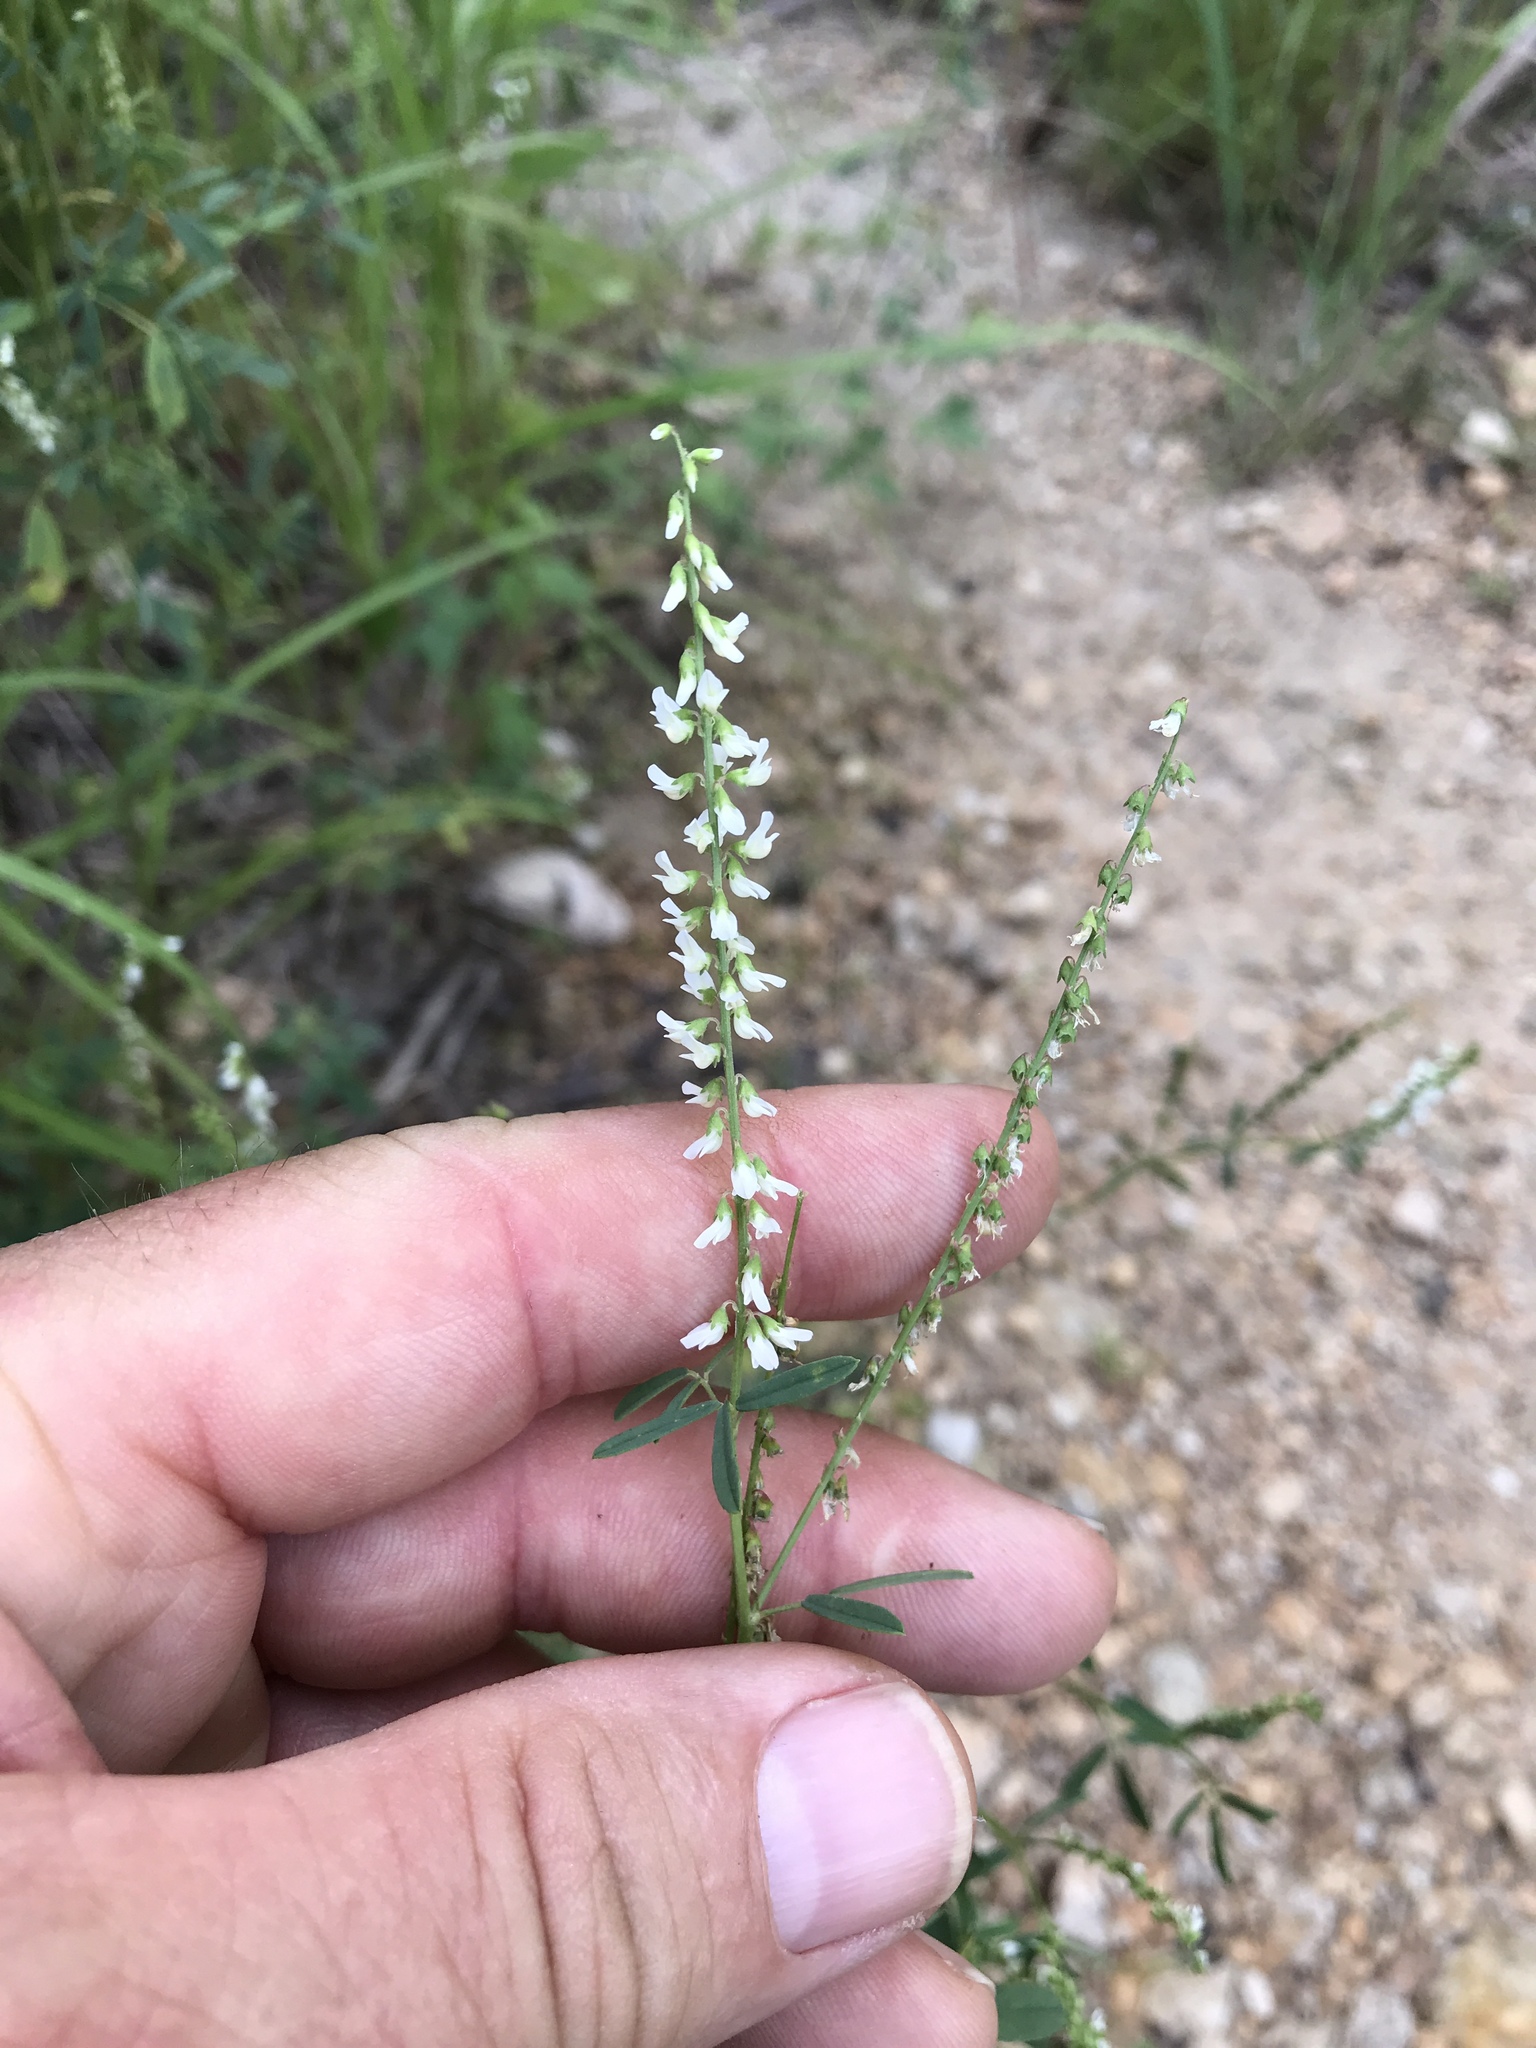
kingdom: Plantae
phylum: Tracheophyta
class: Magnoliopsida
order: Fabales
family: Fabaceae
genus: Melilotus
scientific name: Melilotus albus
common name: White melilot
